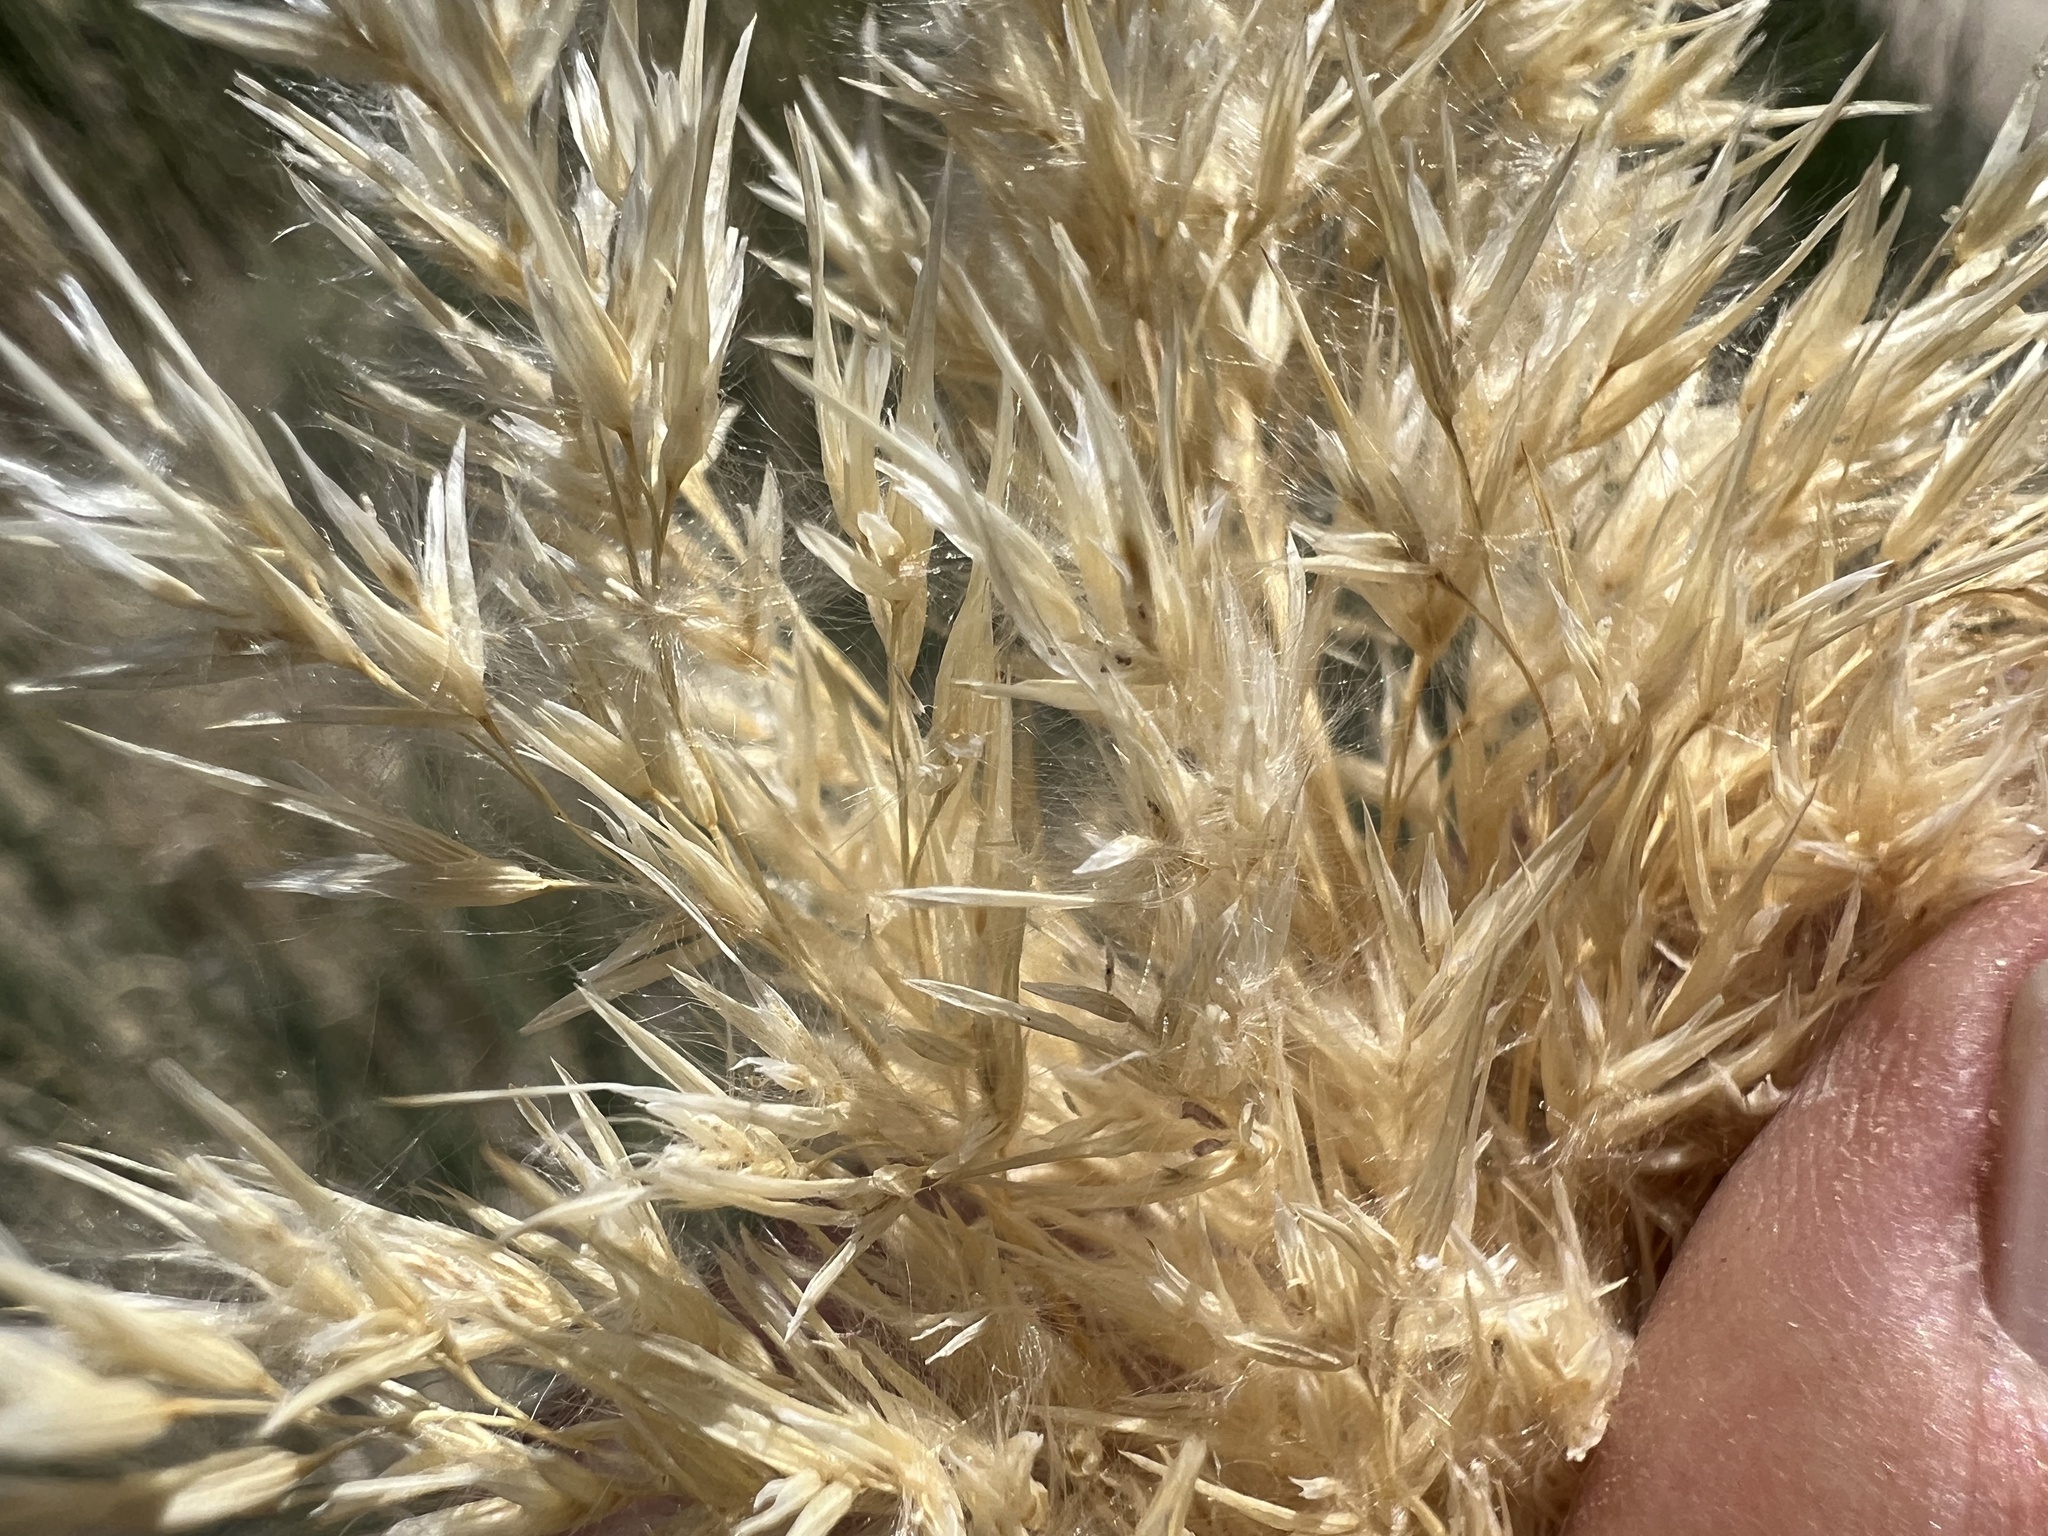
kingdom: Plantae
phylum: Tracheophyta
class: Liliopsida
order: Poales
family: Poaceae
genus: Phragmites
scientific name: Phragmites australis
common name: Common reed
